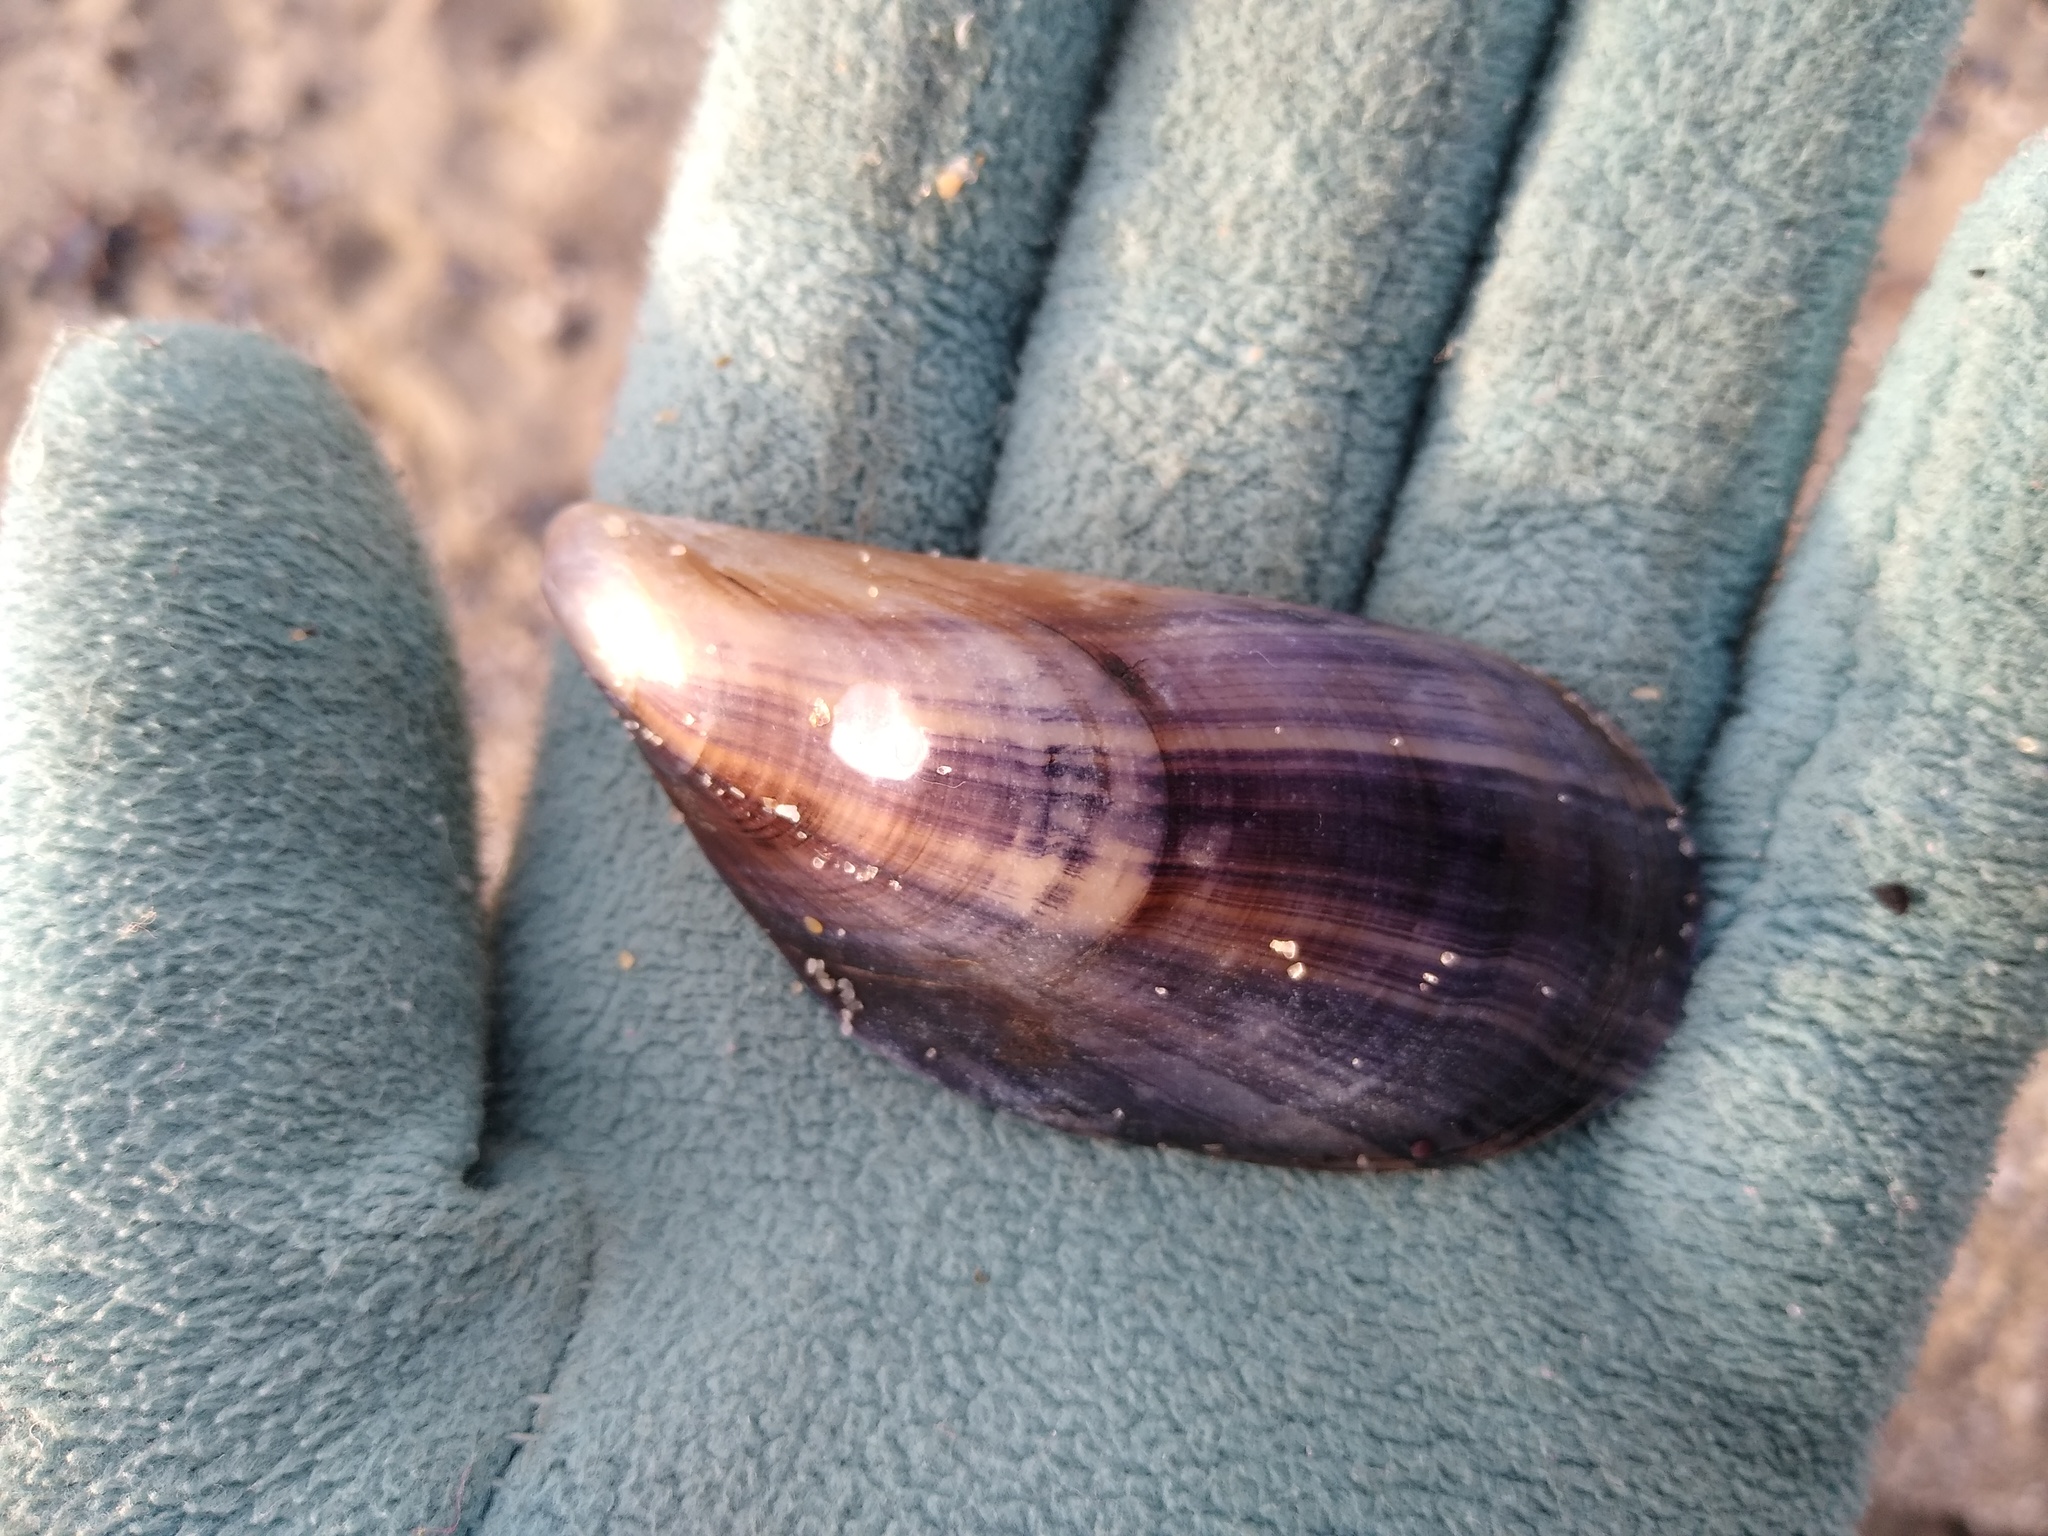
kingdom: Animalia
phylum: Mollusca
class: Bivalvia
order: Mytilida
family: Mytilidae
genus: Mytilus
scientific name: Mytilus galloprovincialis
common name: Mediterranean mussel
